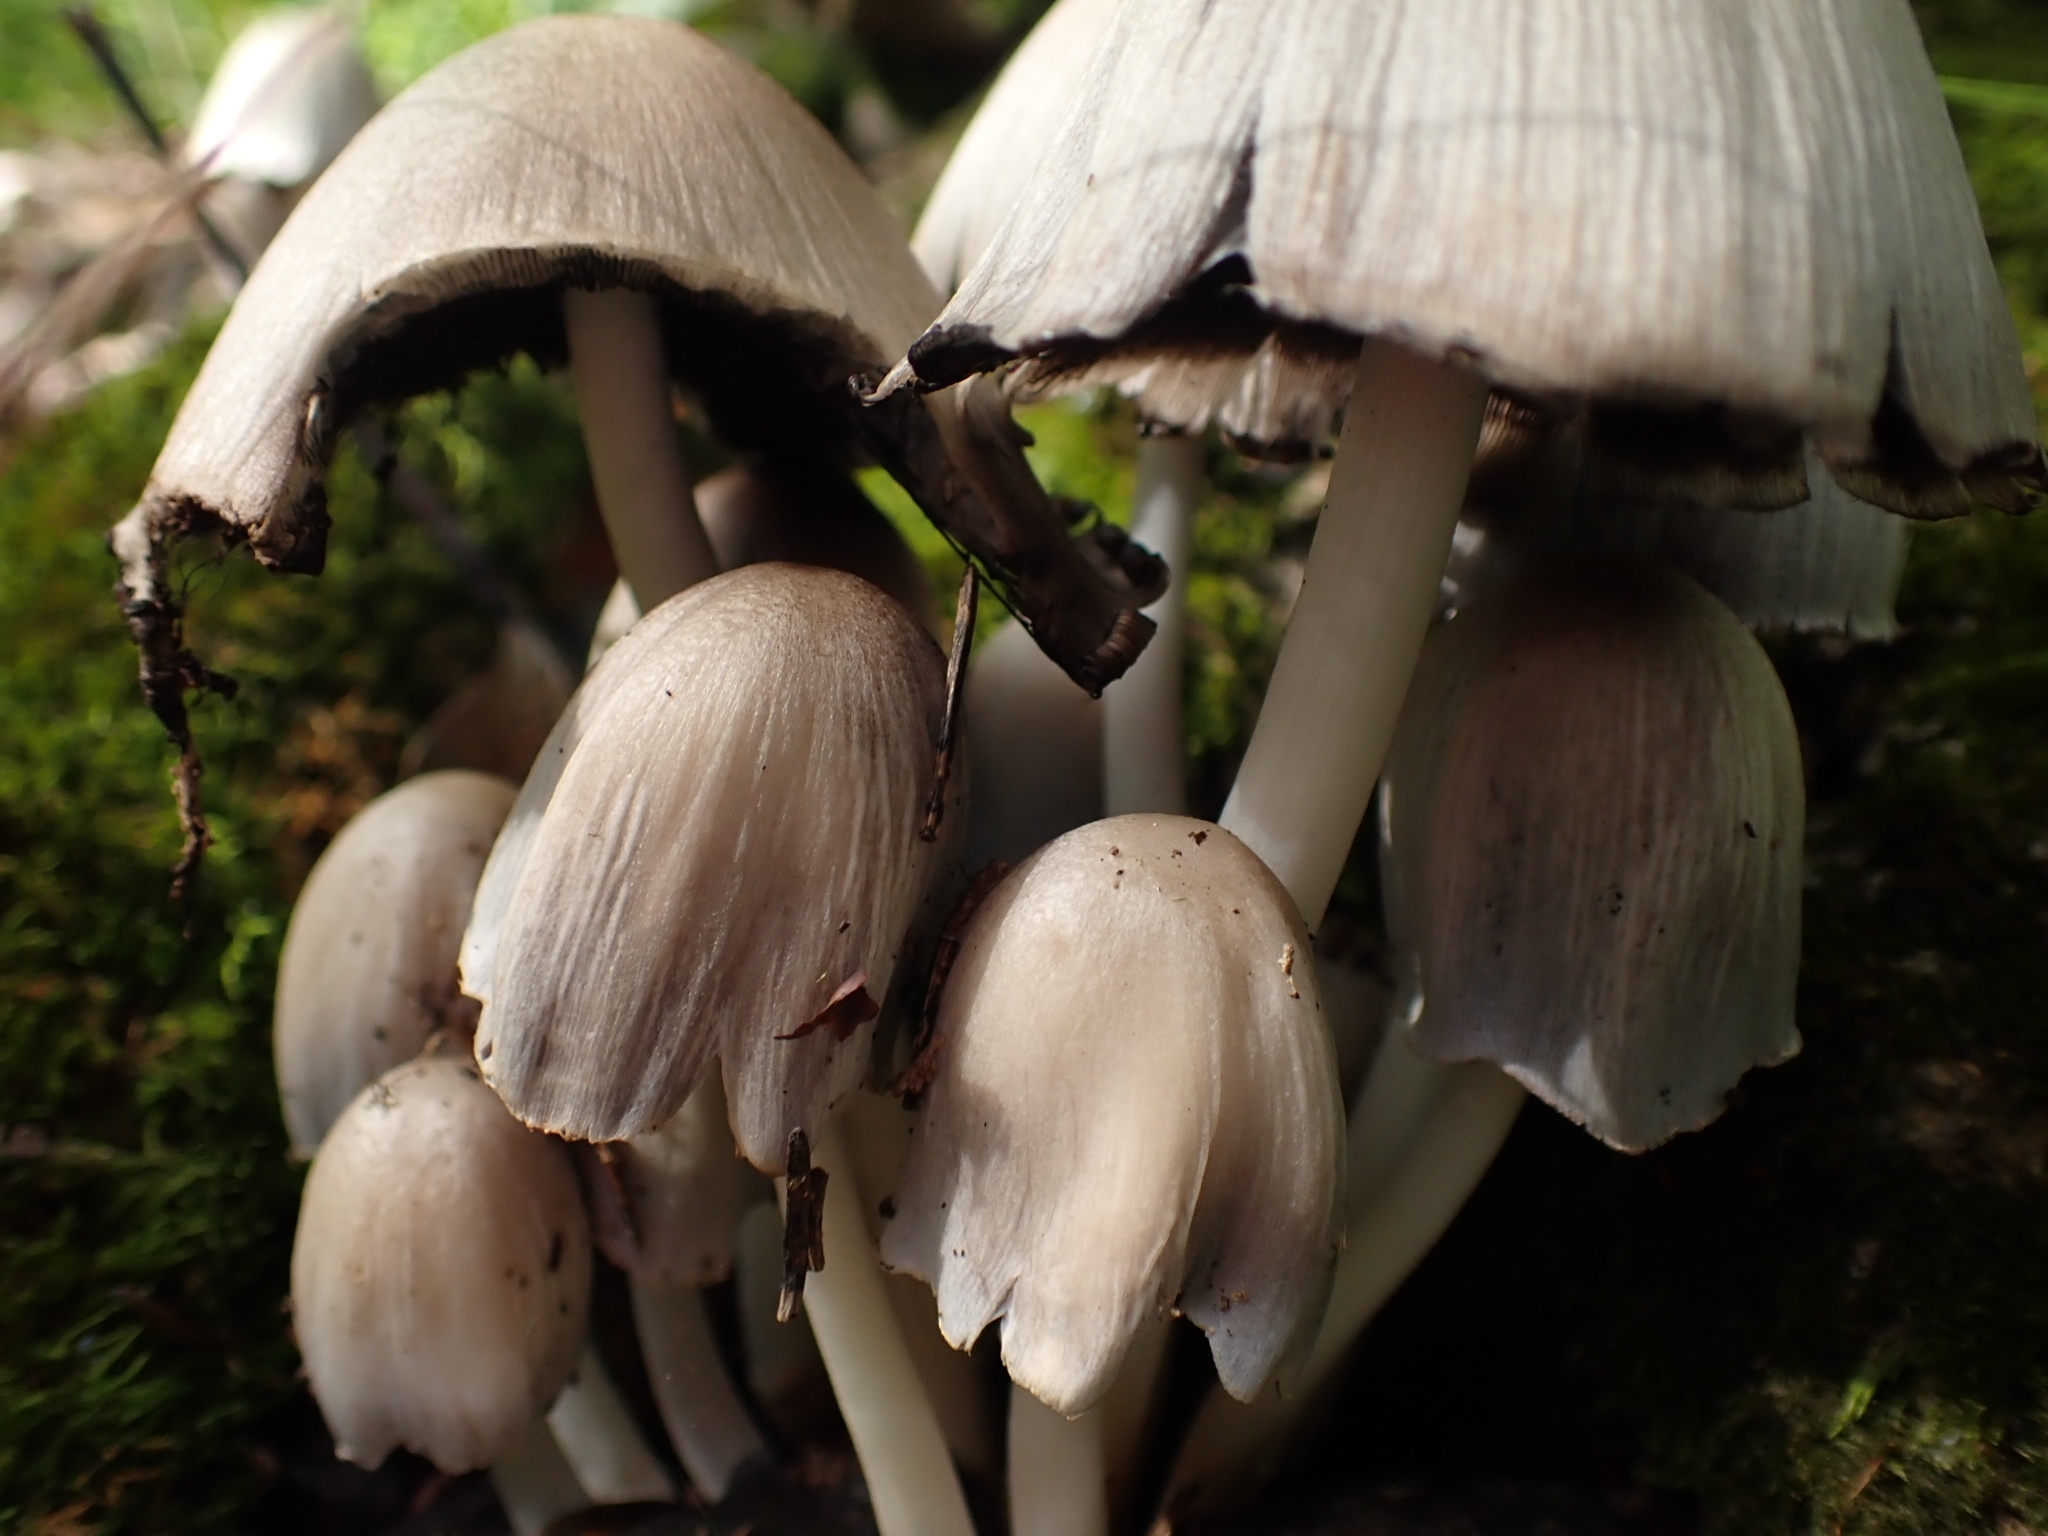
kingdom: Fungi
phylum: Basidiomycota
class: Agaricomycetes
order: Agaricales
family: Psathyrellaceae
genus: Coprinopsis
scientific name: Coprinopsis atramentaria
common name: Common ink-cap
